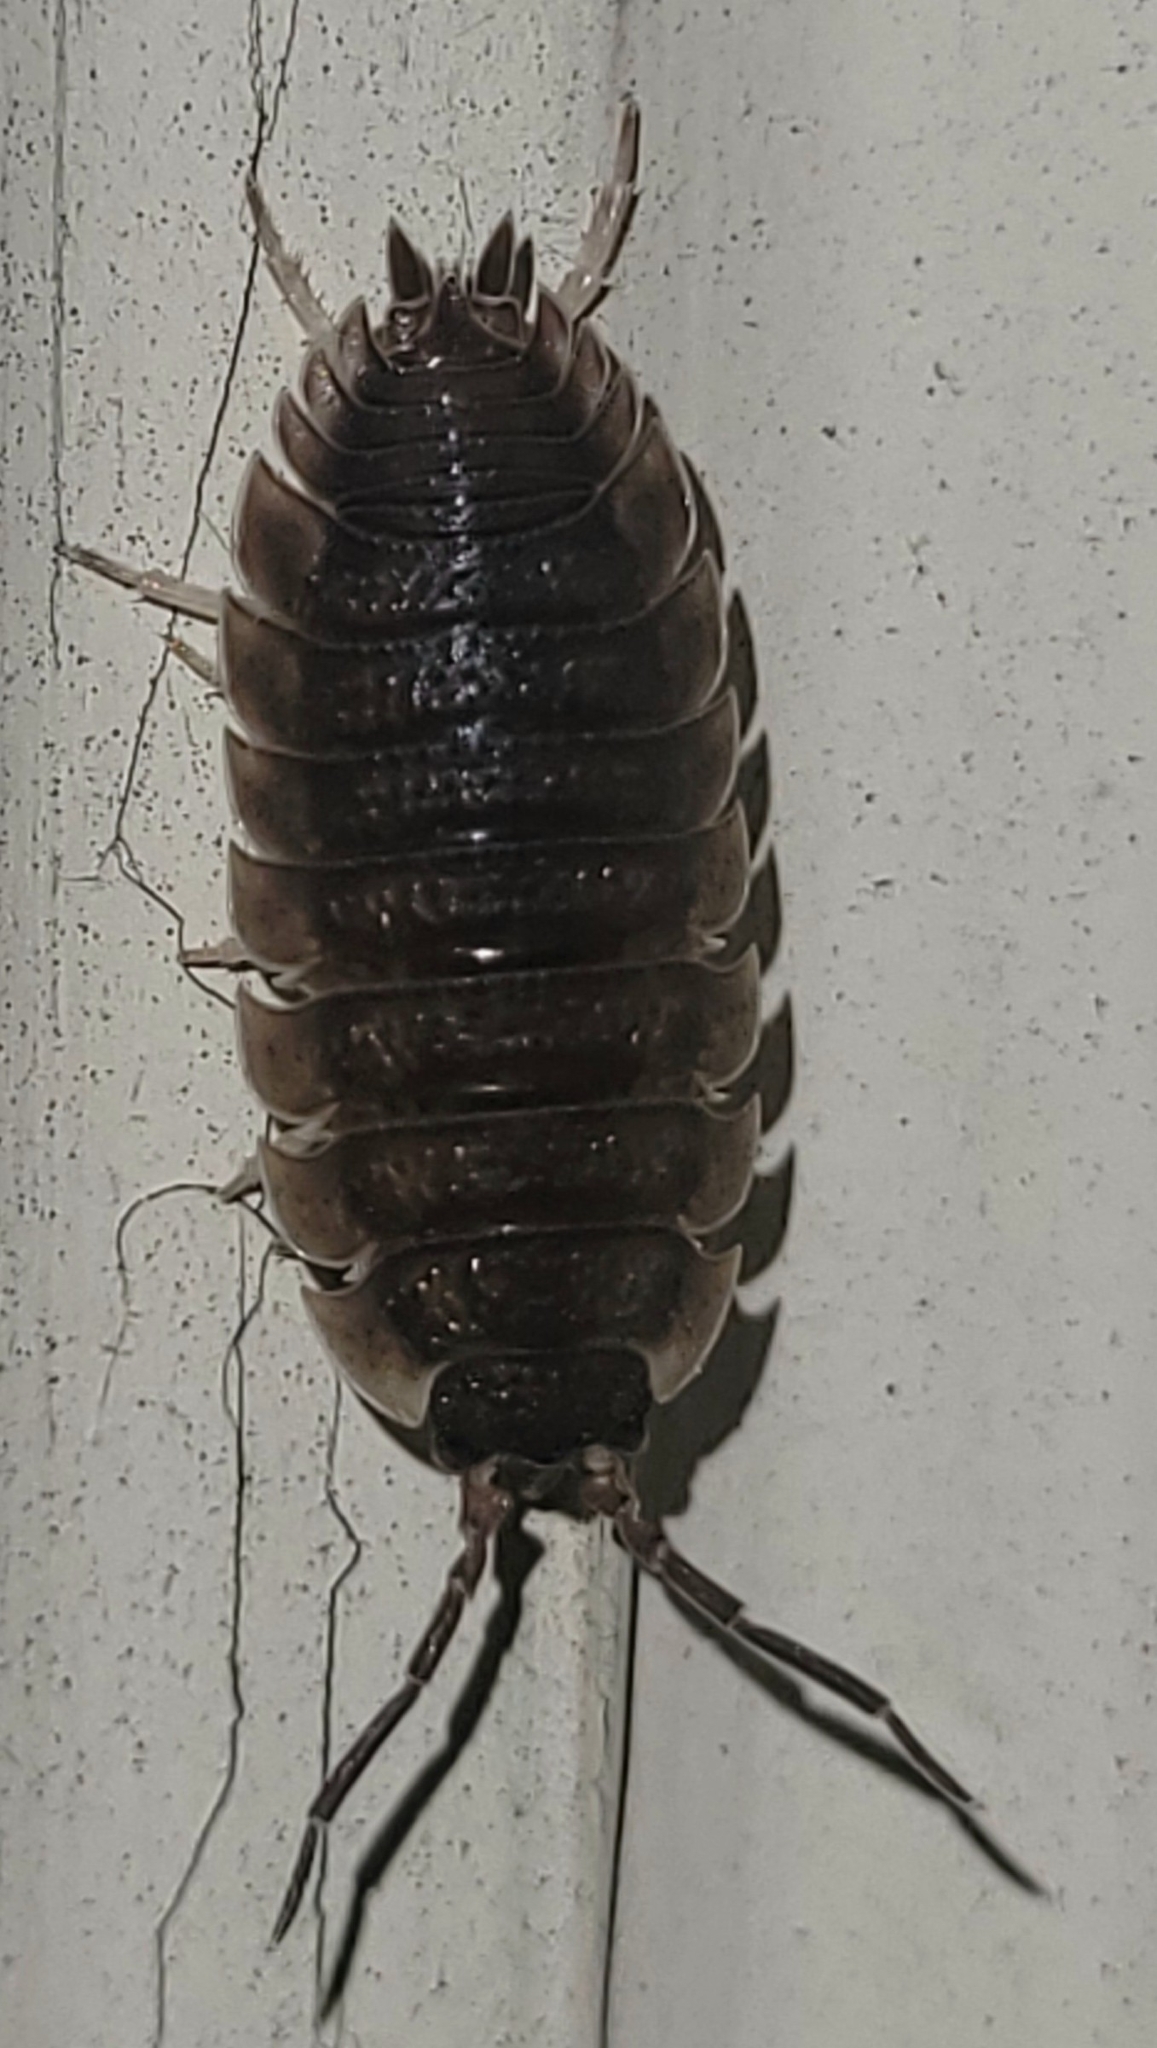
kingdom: Animalia
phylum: Arthropoda
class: Malacostraca
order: Isopoda
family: Porcellionidae
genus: Porcellio
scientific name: Porcellio scaber
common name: Common rough woodlouse
